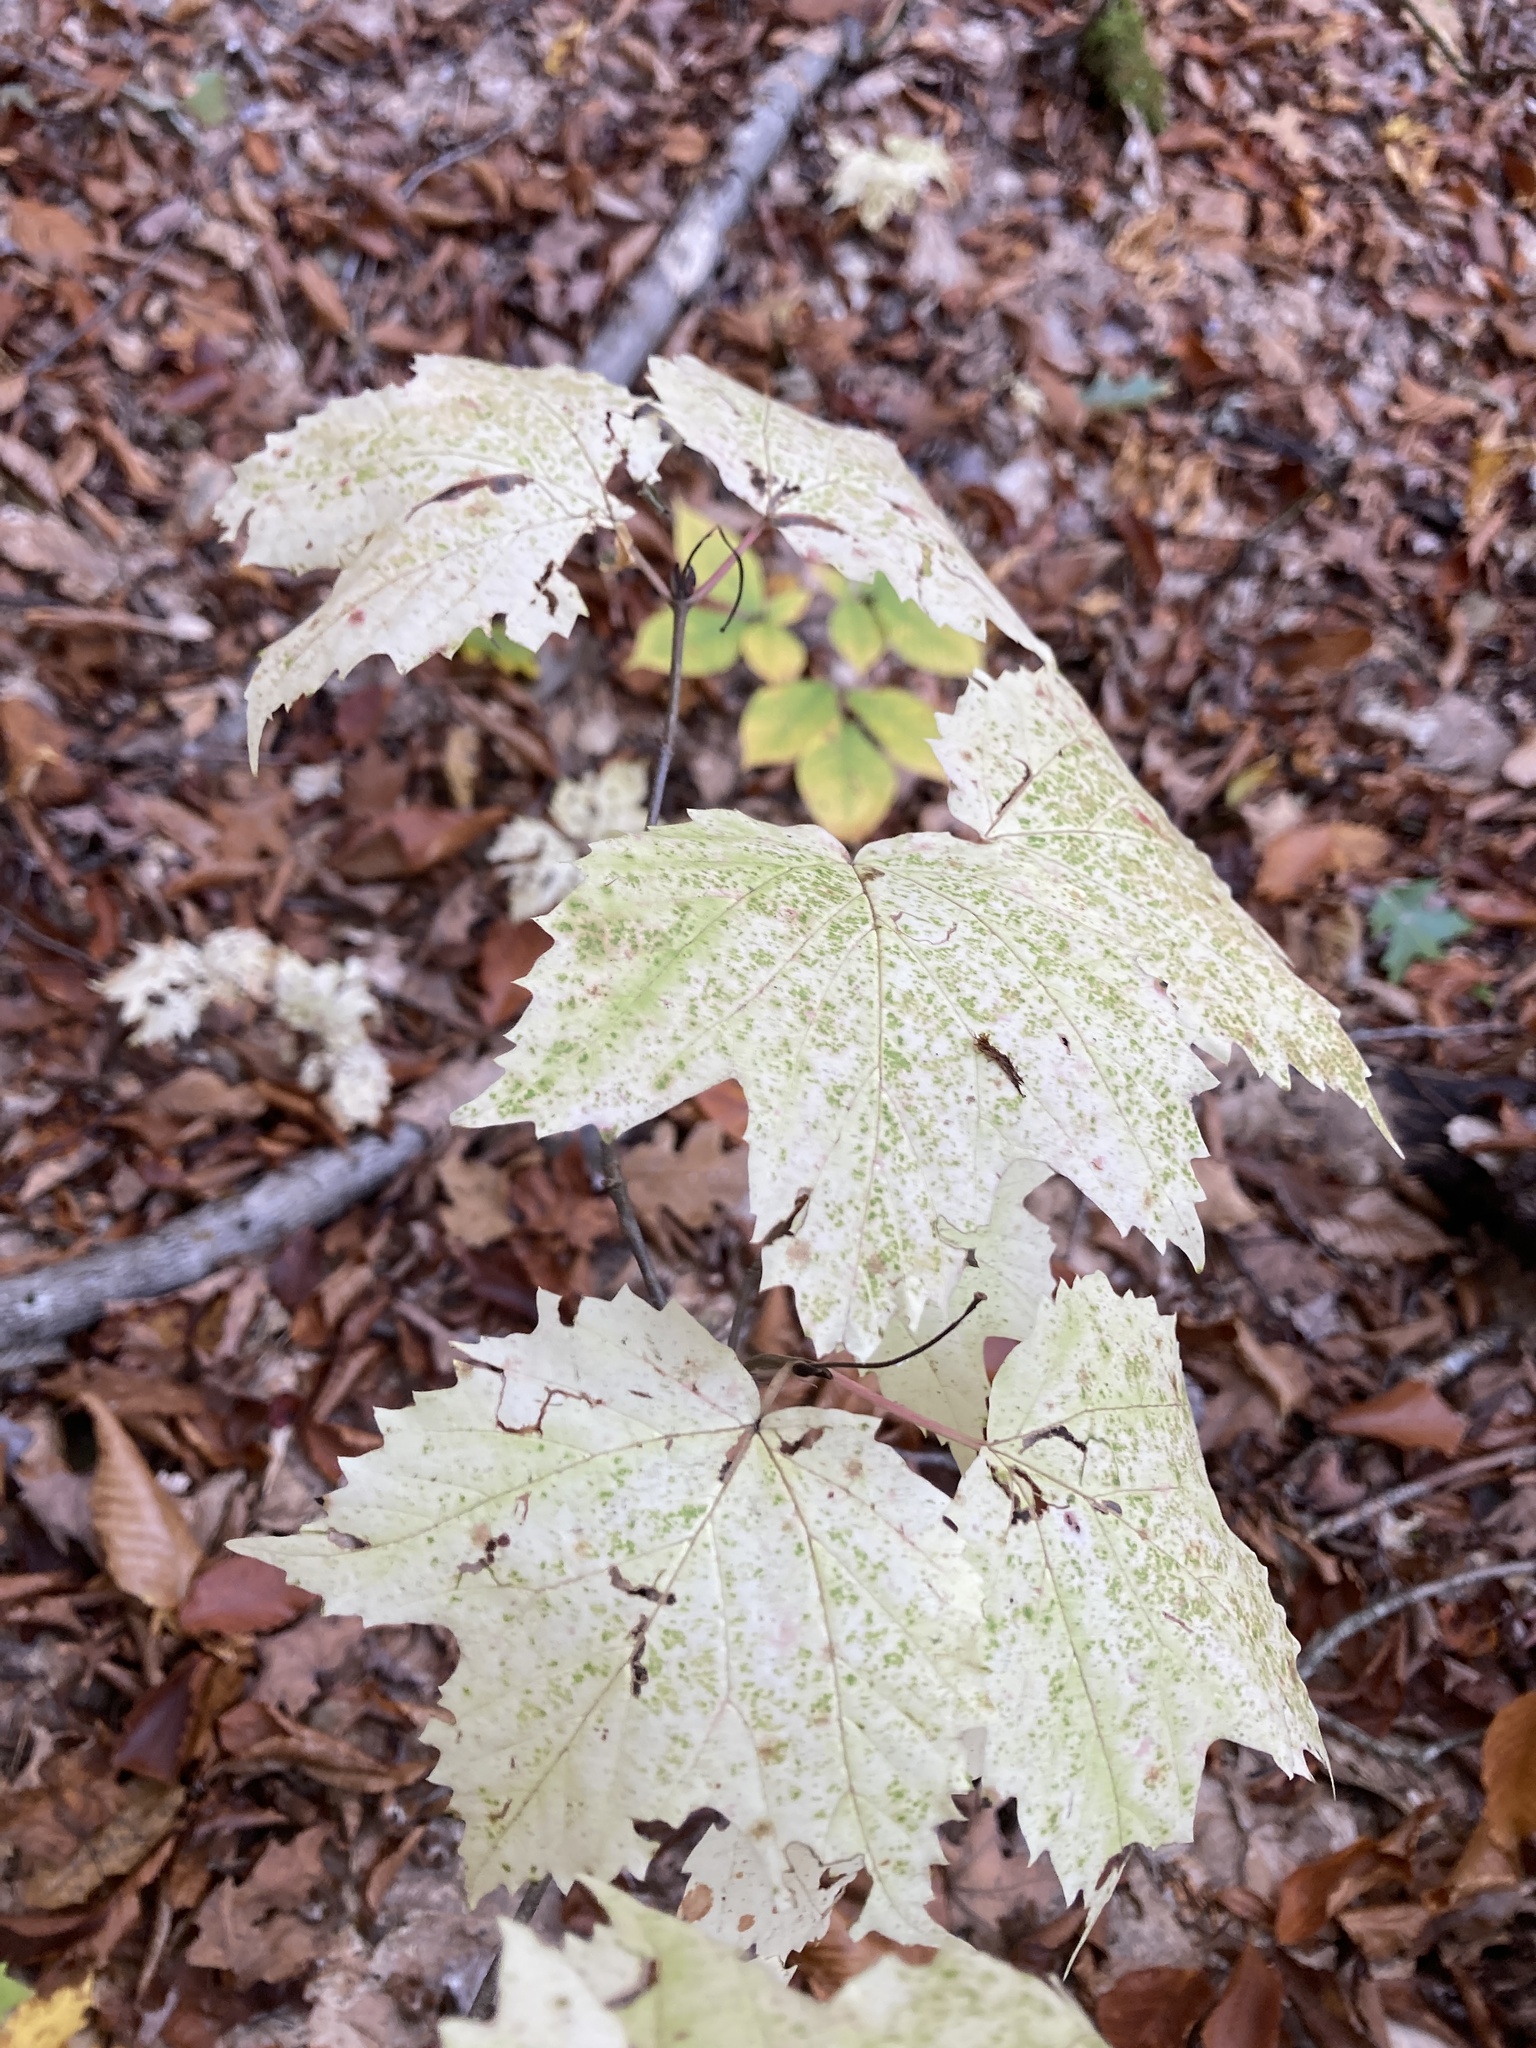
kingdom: Plantae
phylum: Tracheophyta
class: Magnoliopsida
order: Dipsacales
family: Viburnaceae
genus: Viburnum
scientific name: Viburnum acerifolium
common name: Dockmackie
